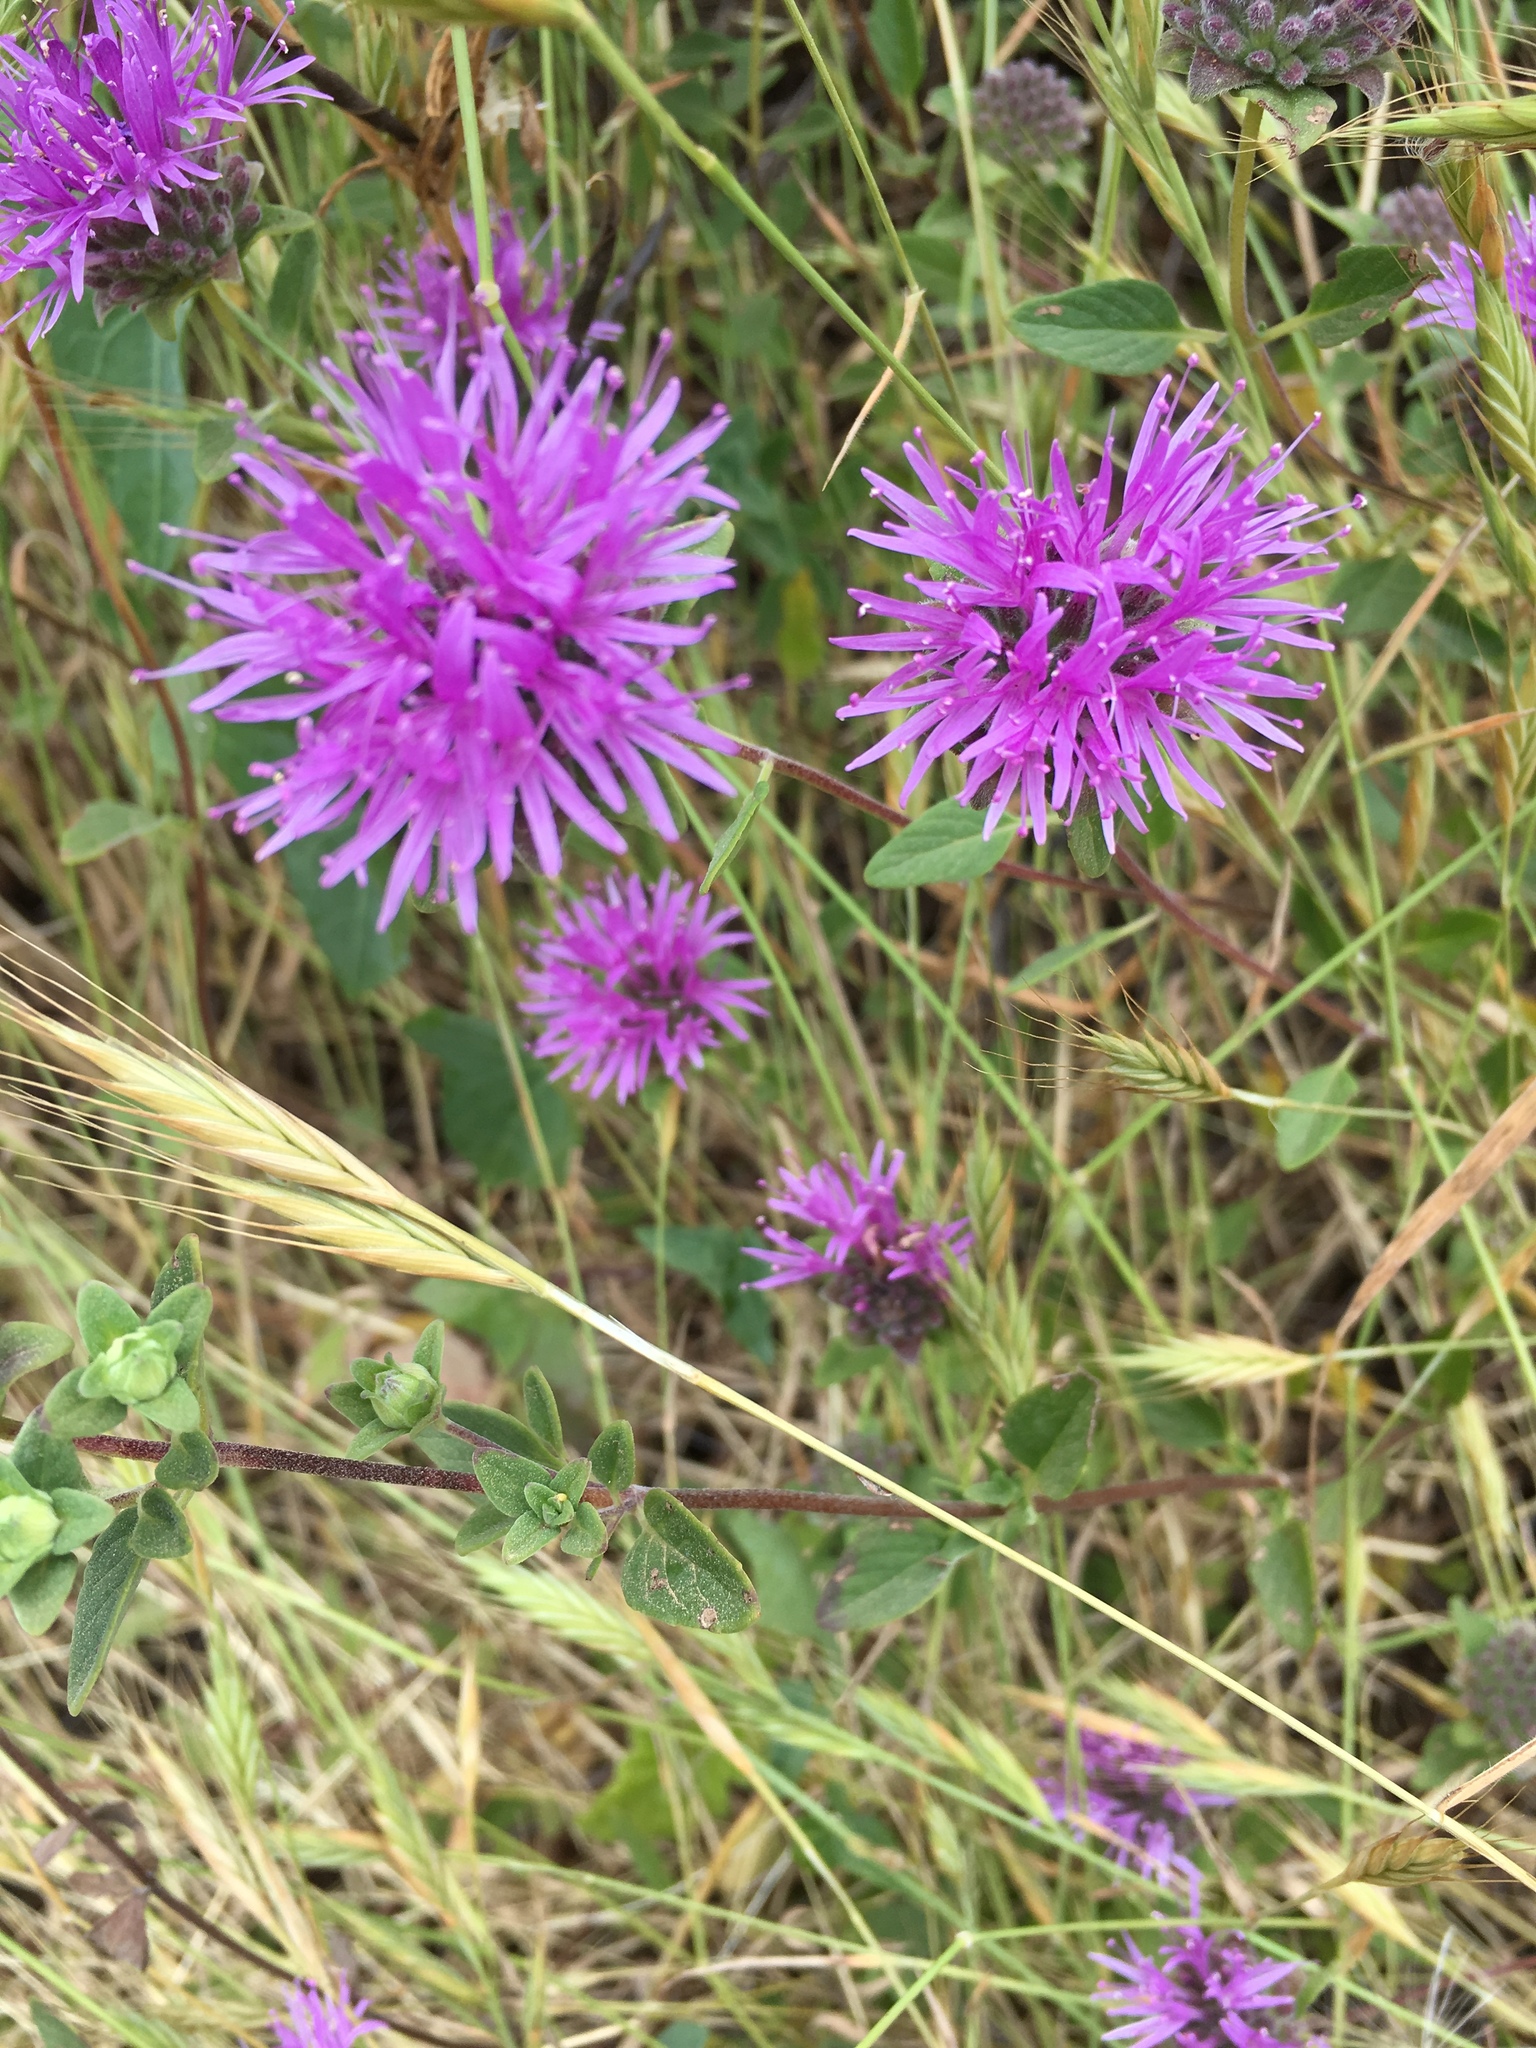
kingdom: Plantae
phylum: Tracheophyta
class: Magnoliopsida
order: Lamiales
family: Lamiaceae
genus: Monardella
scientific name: Monardella odoratissima
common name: Pacific monardella
